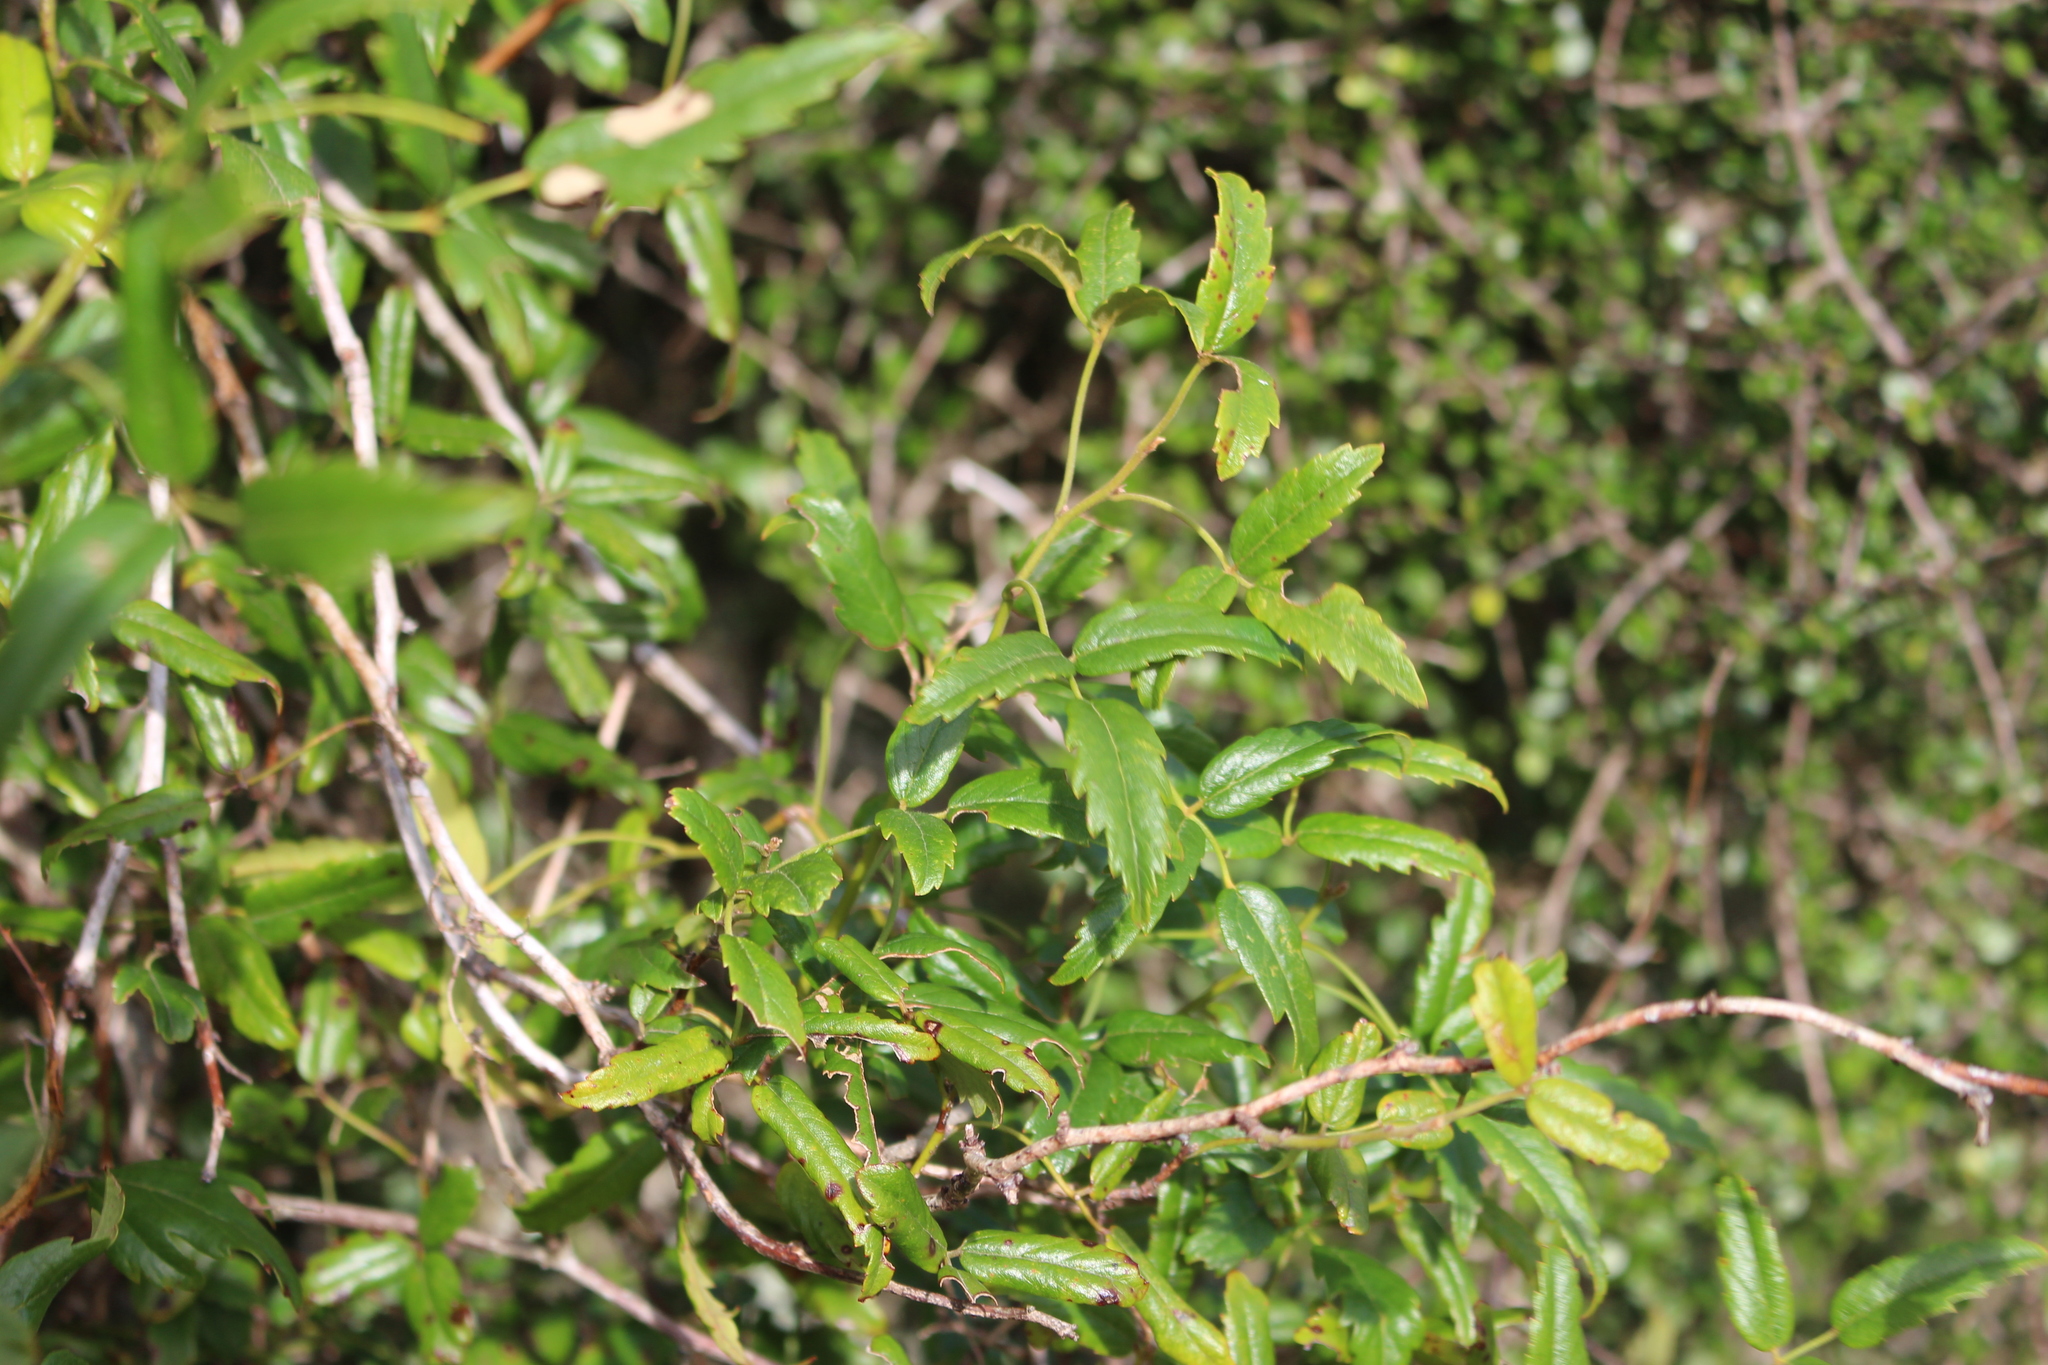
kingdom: Plantae
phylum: Tracheophyta
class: Magnoliopsida
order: Rosales
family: Rosaceae
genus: Rubus
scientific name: Rubus schmidelioides
